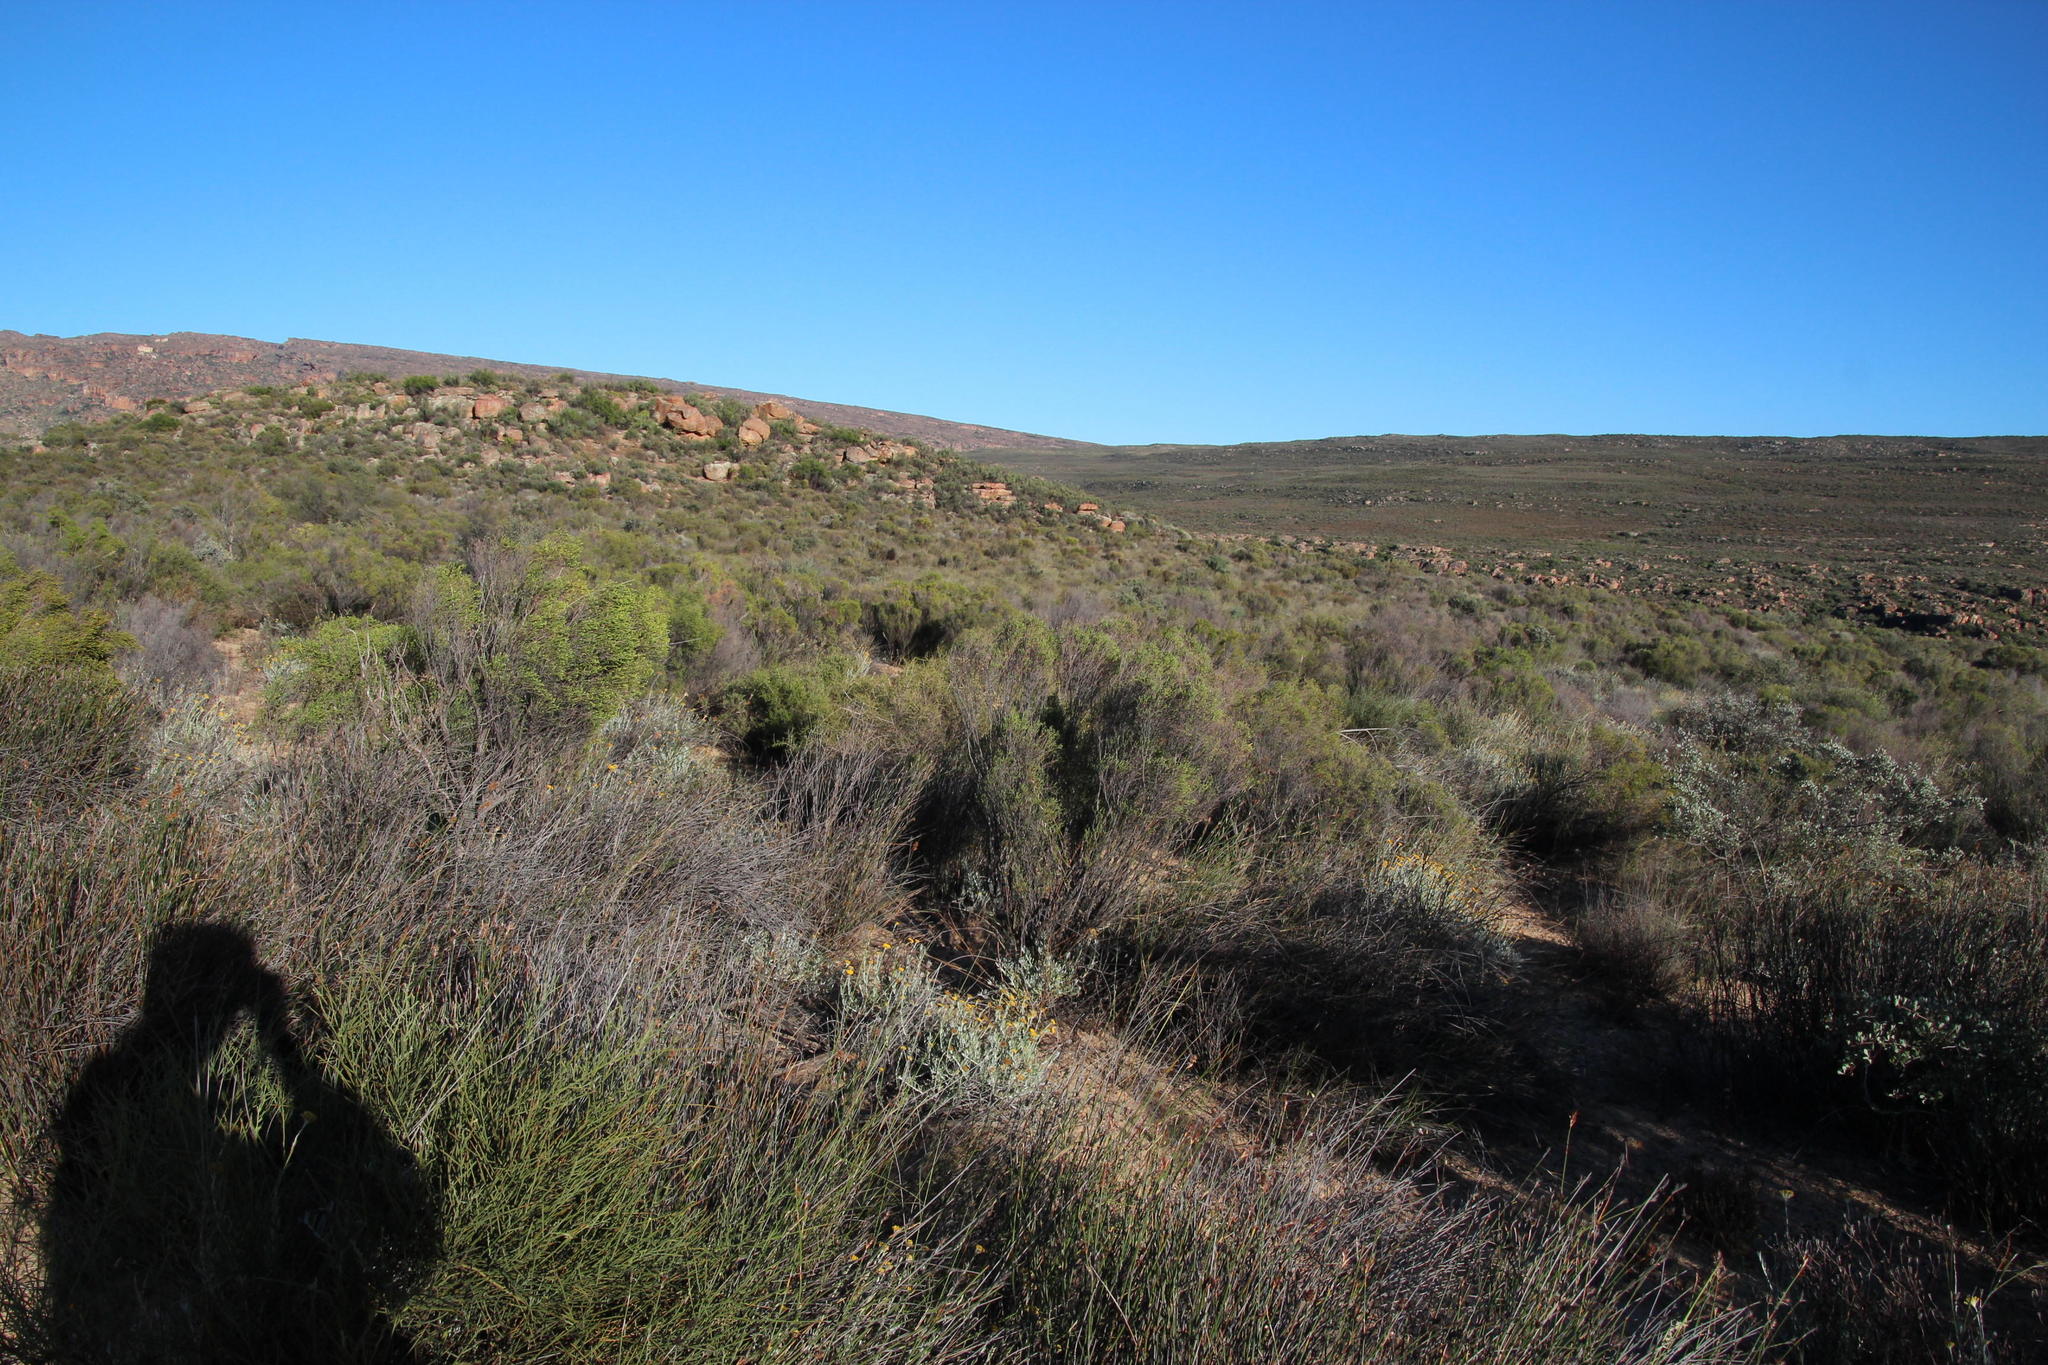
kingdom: Plantae
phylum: Tracheophyta
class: Magnoliopsida
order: Malvales
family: Thymelaeaceae
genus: Passerina
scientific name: Passerina truncata
